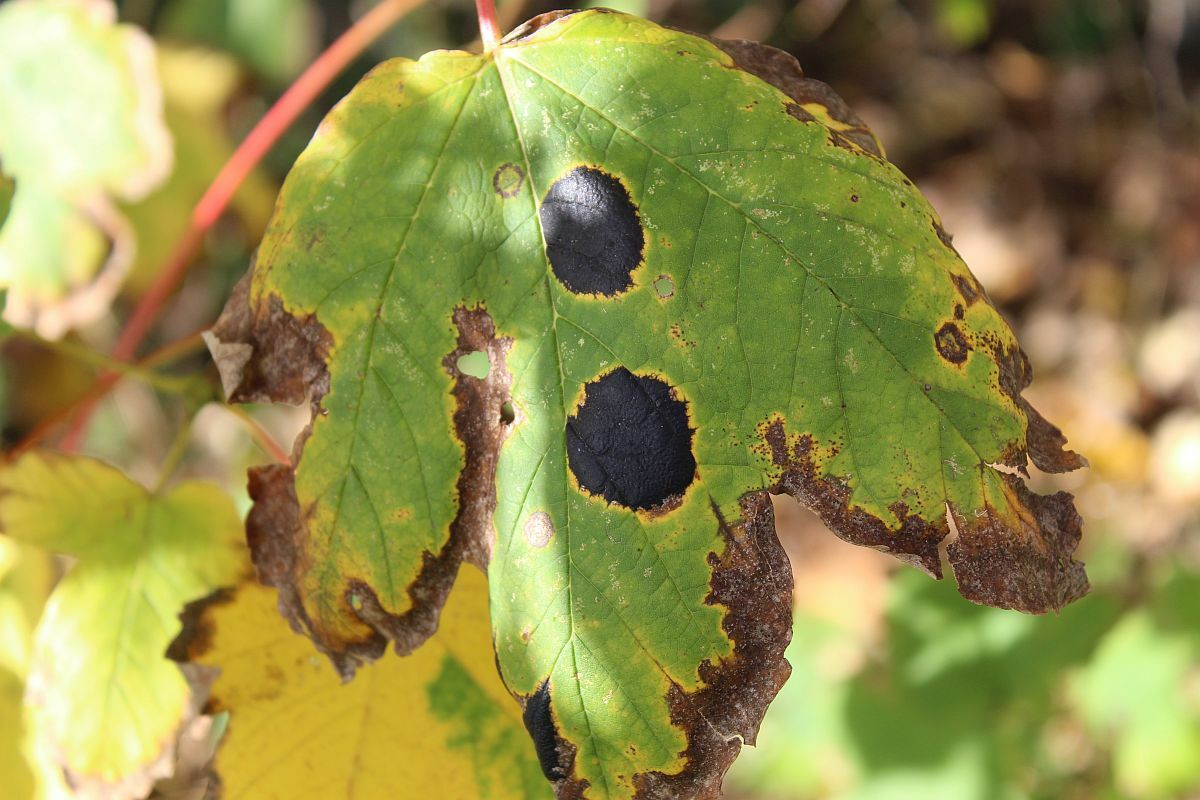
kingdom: Fungi
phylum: Ascomycota
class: Leotiomycetes
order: Rhytismatales
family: Rhytismataceae
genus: Rhytisma
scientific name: Rhytisma acerinum
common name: European tar spot
